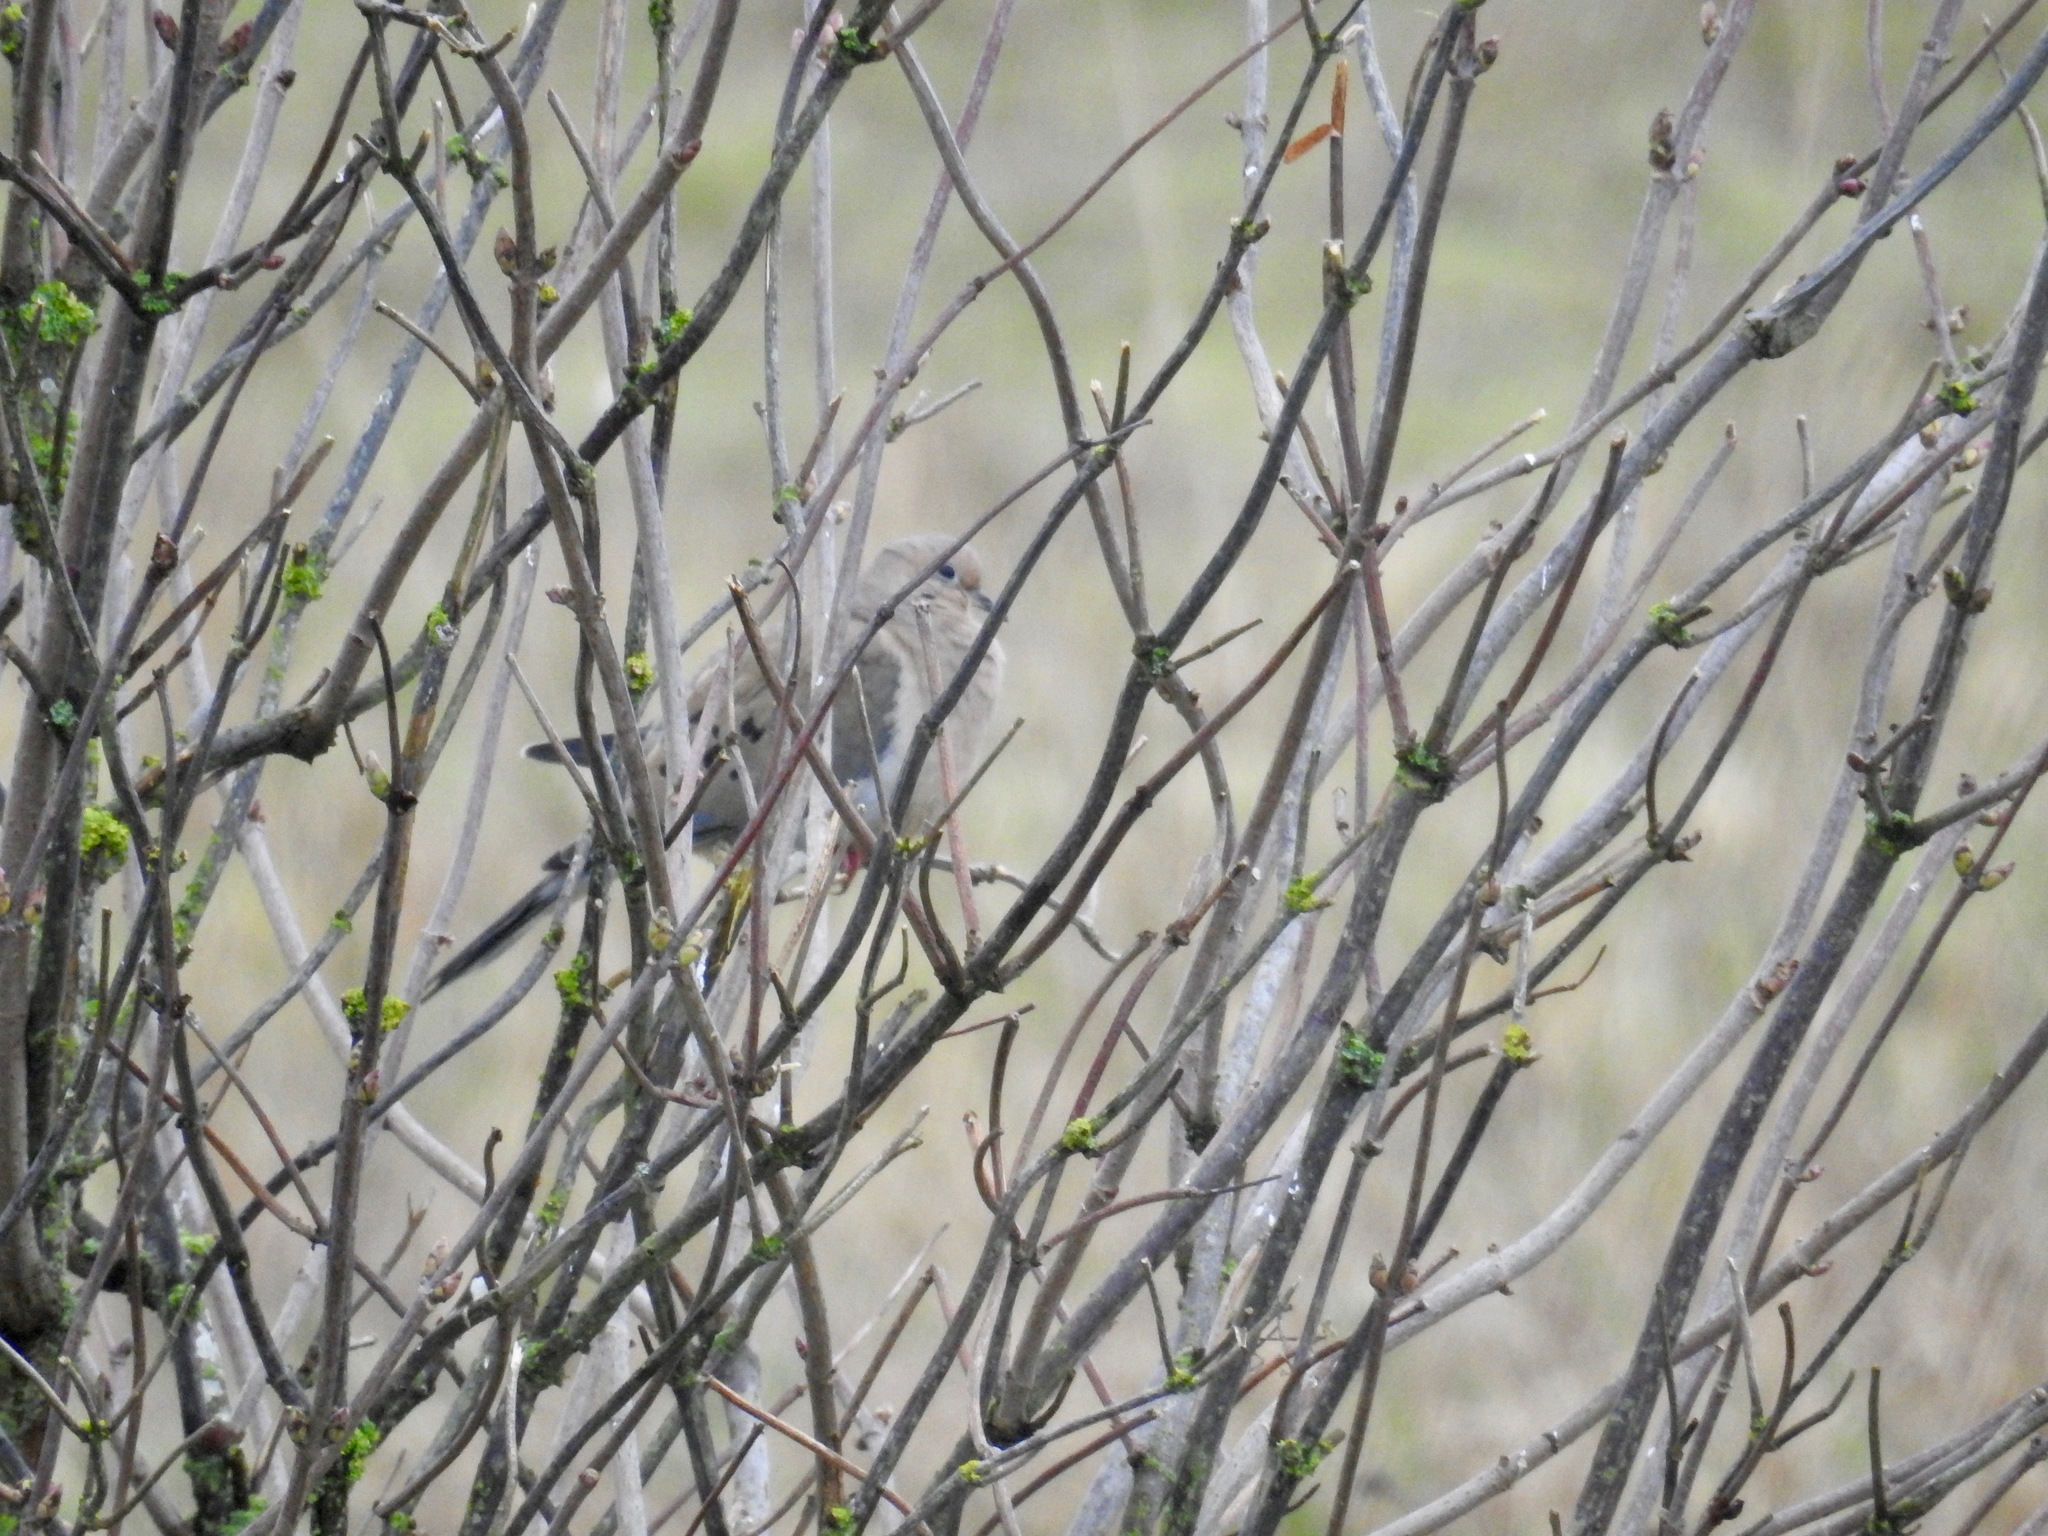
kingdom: Animalia
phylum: Chordata
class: Aves
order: Columbiformes
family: Columbidae
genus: Zenaida
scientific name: Zenaida macroura
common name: Mourning dove
